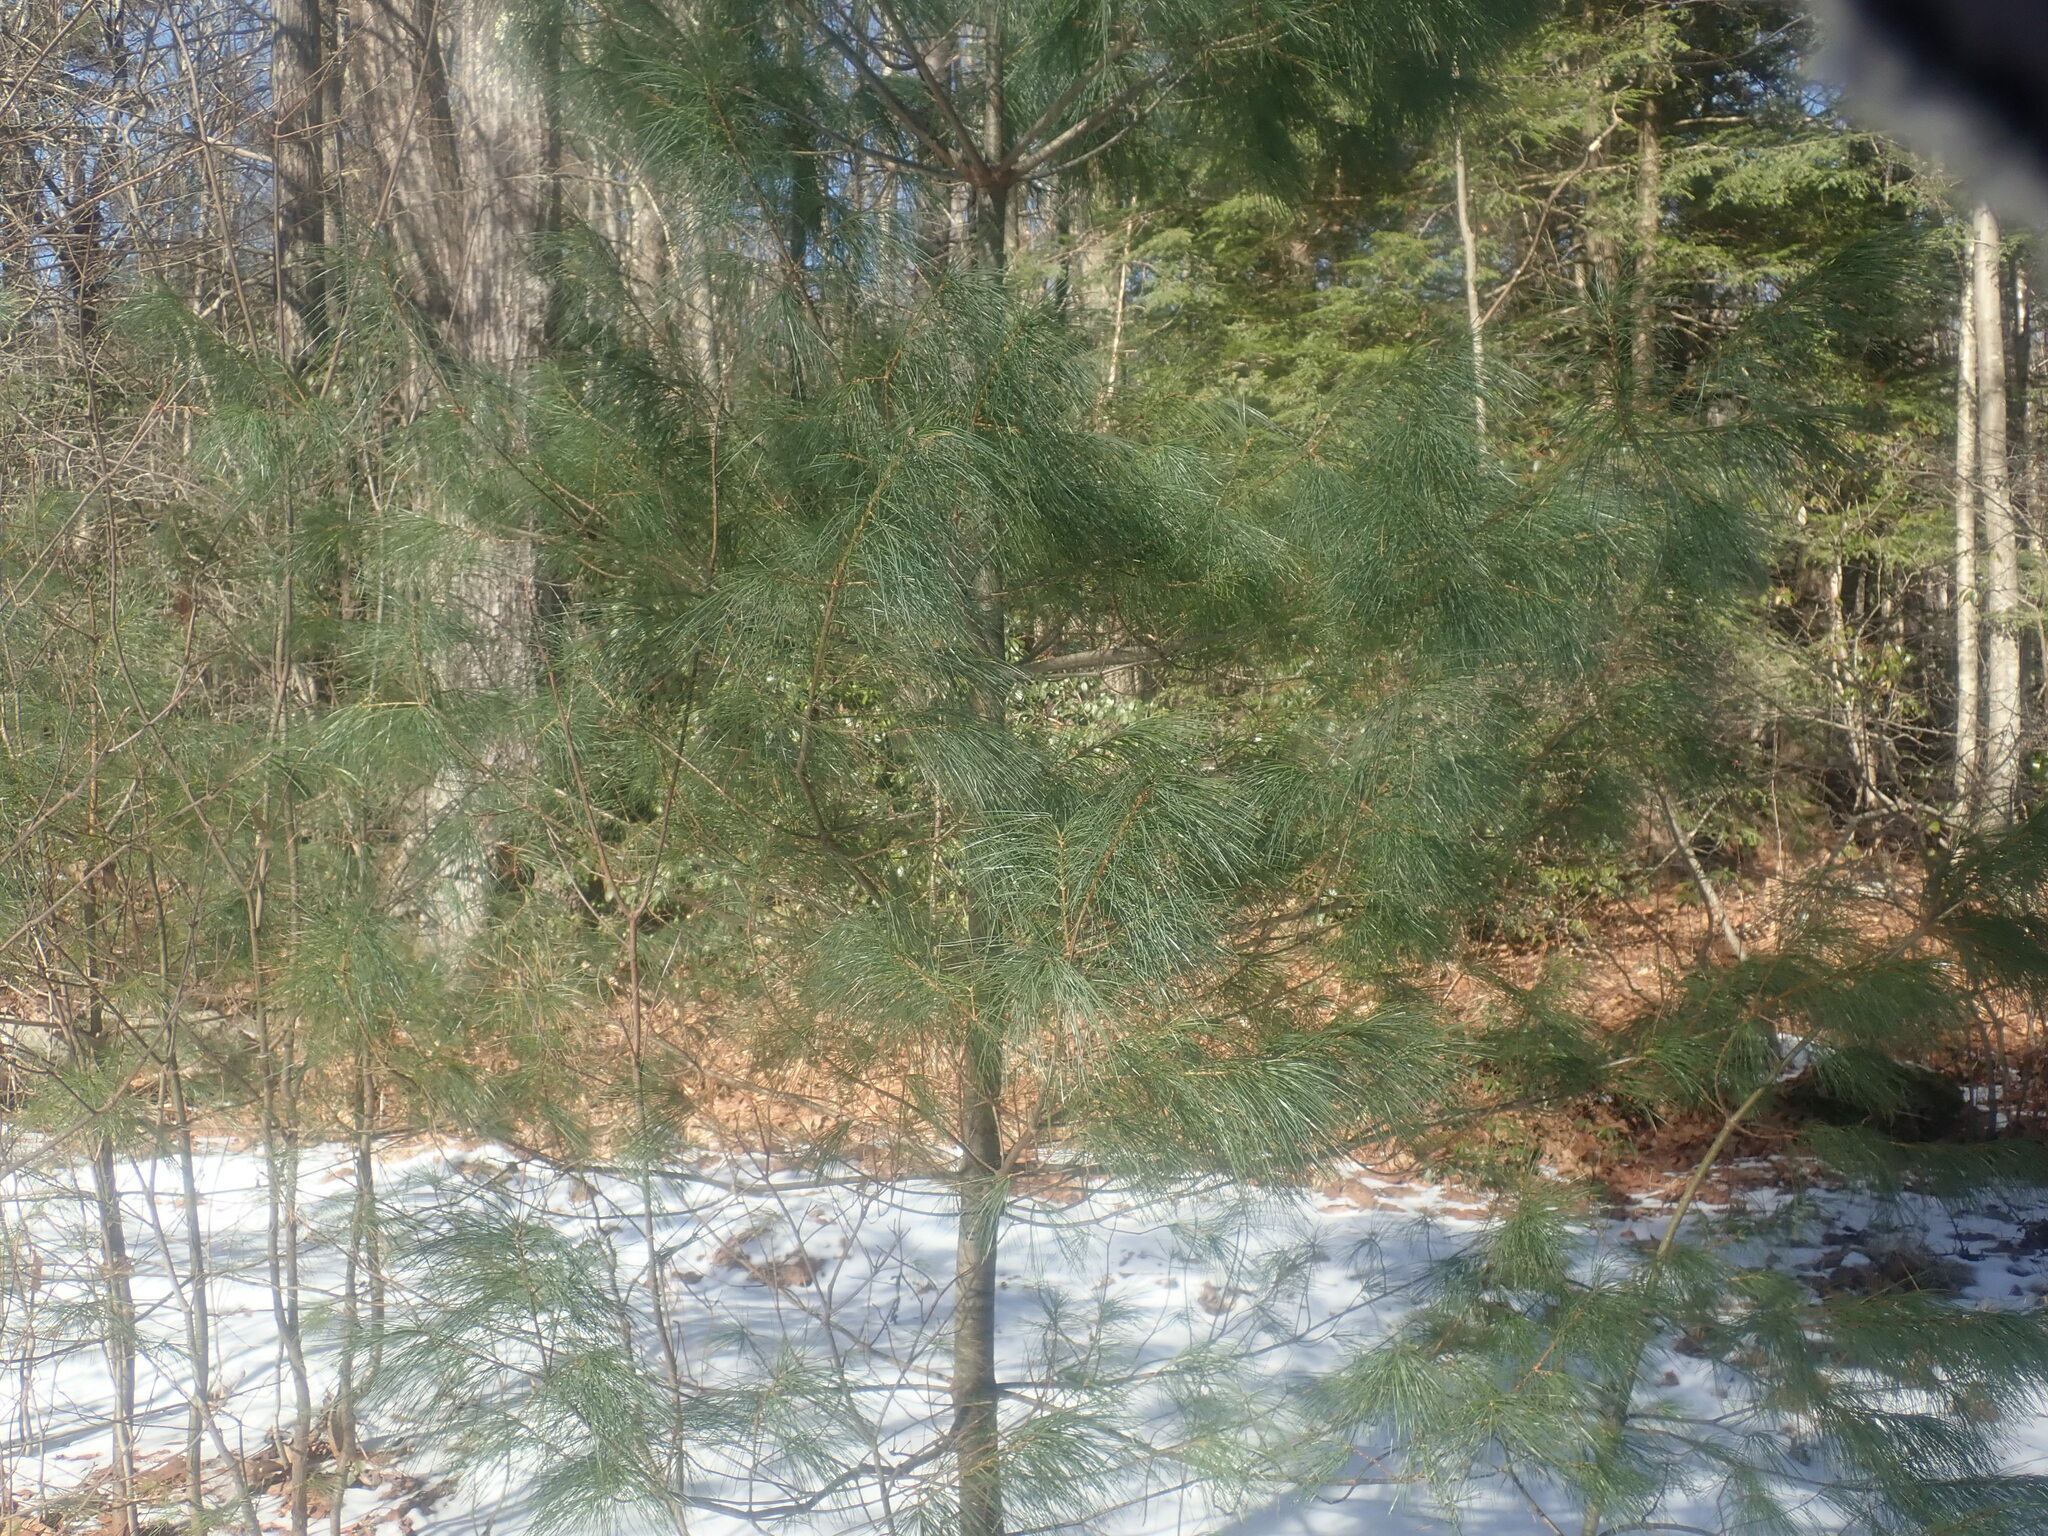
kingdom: Plantae
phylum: Tracheophyta
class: Pinopsida
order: Pinales
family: Pinaceae
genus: Pinus
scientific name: Pinus strobus
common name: Weymouth pine
